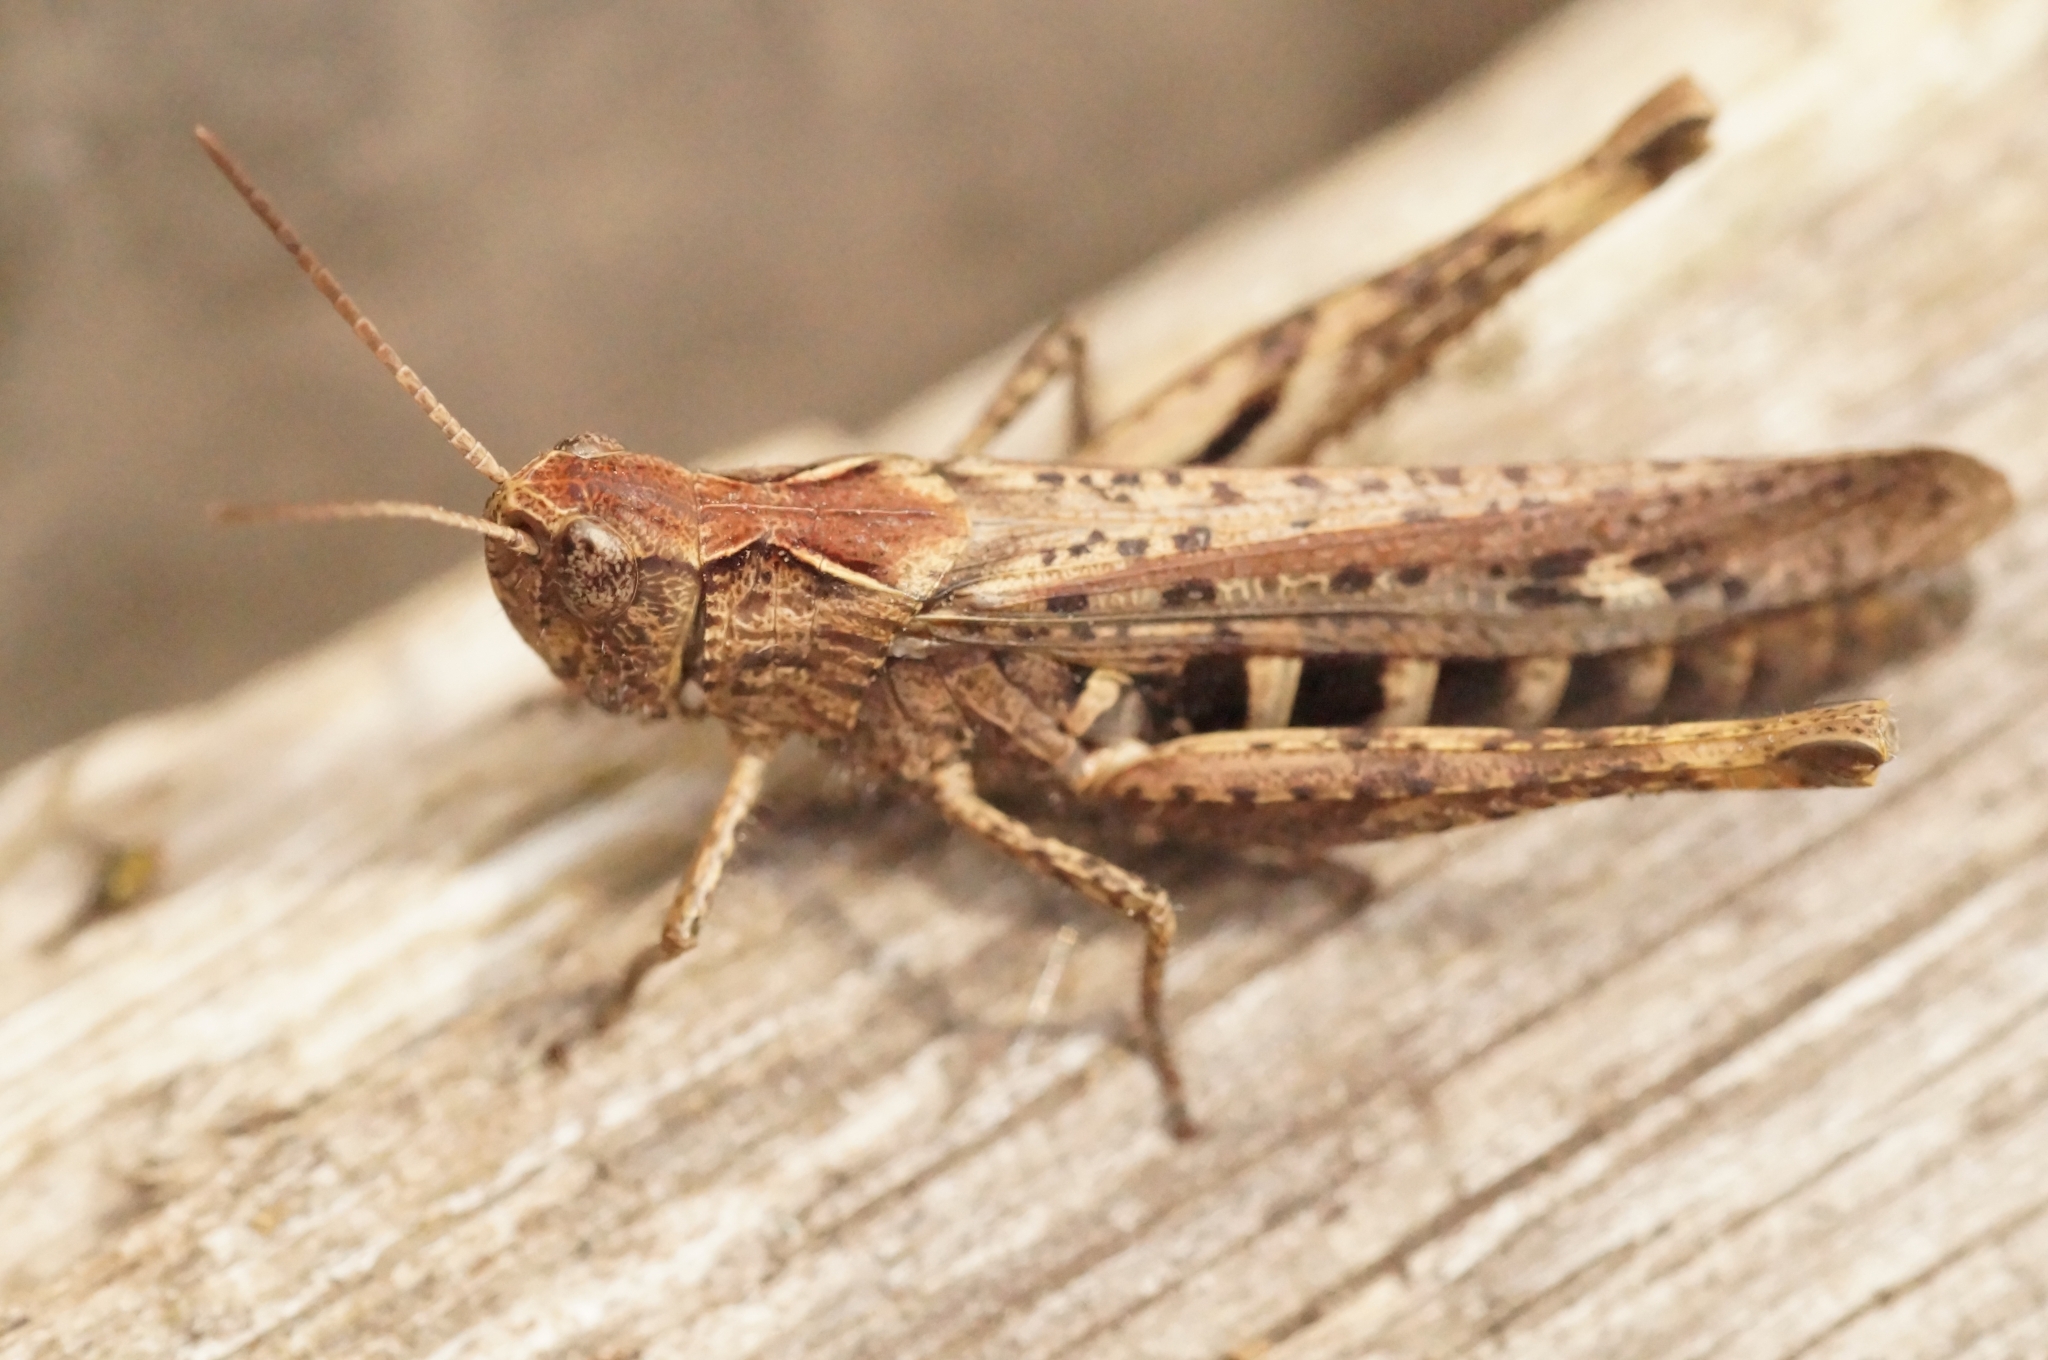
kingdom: Animalia
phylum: Arthropoda
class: Insecta
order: Orthoptera
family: Acrididae
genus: Glyptobothrus
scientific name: Glyptobothrus
